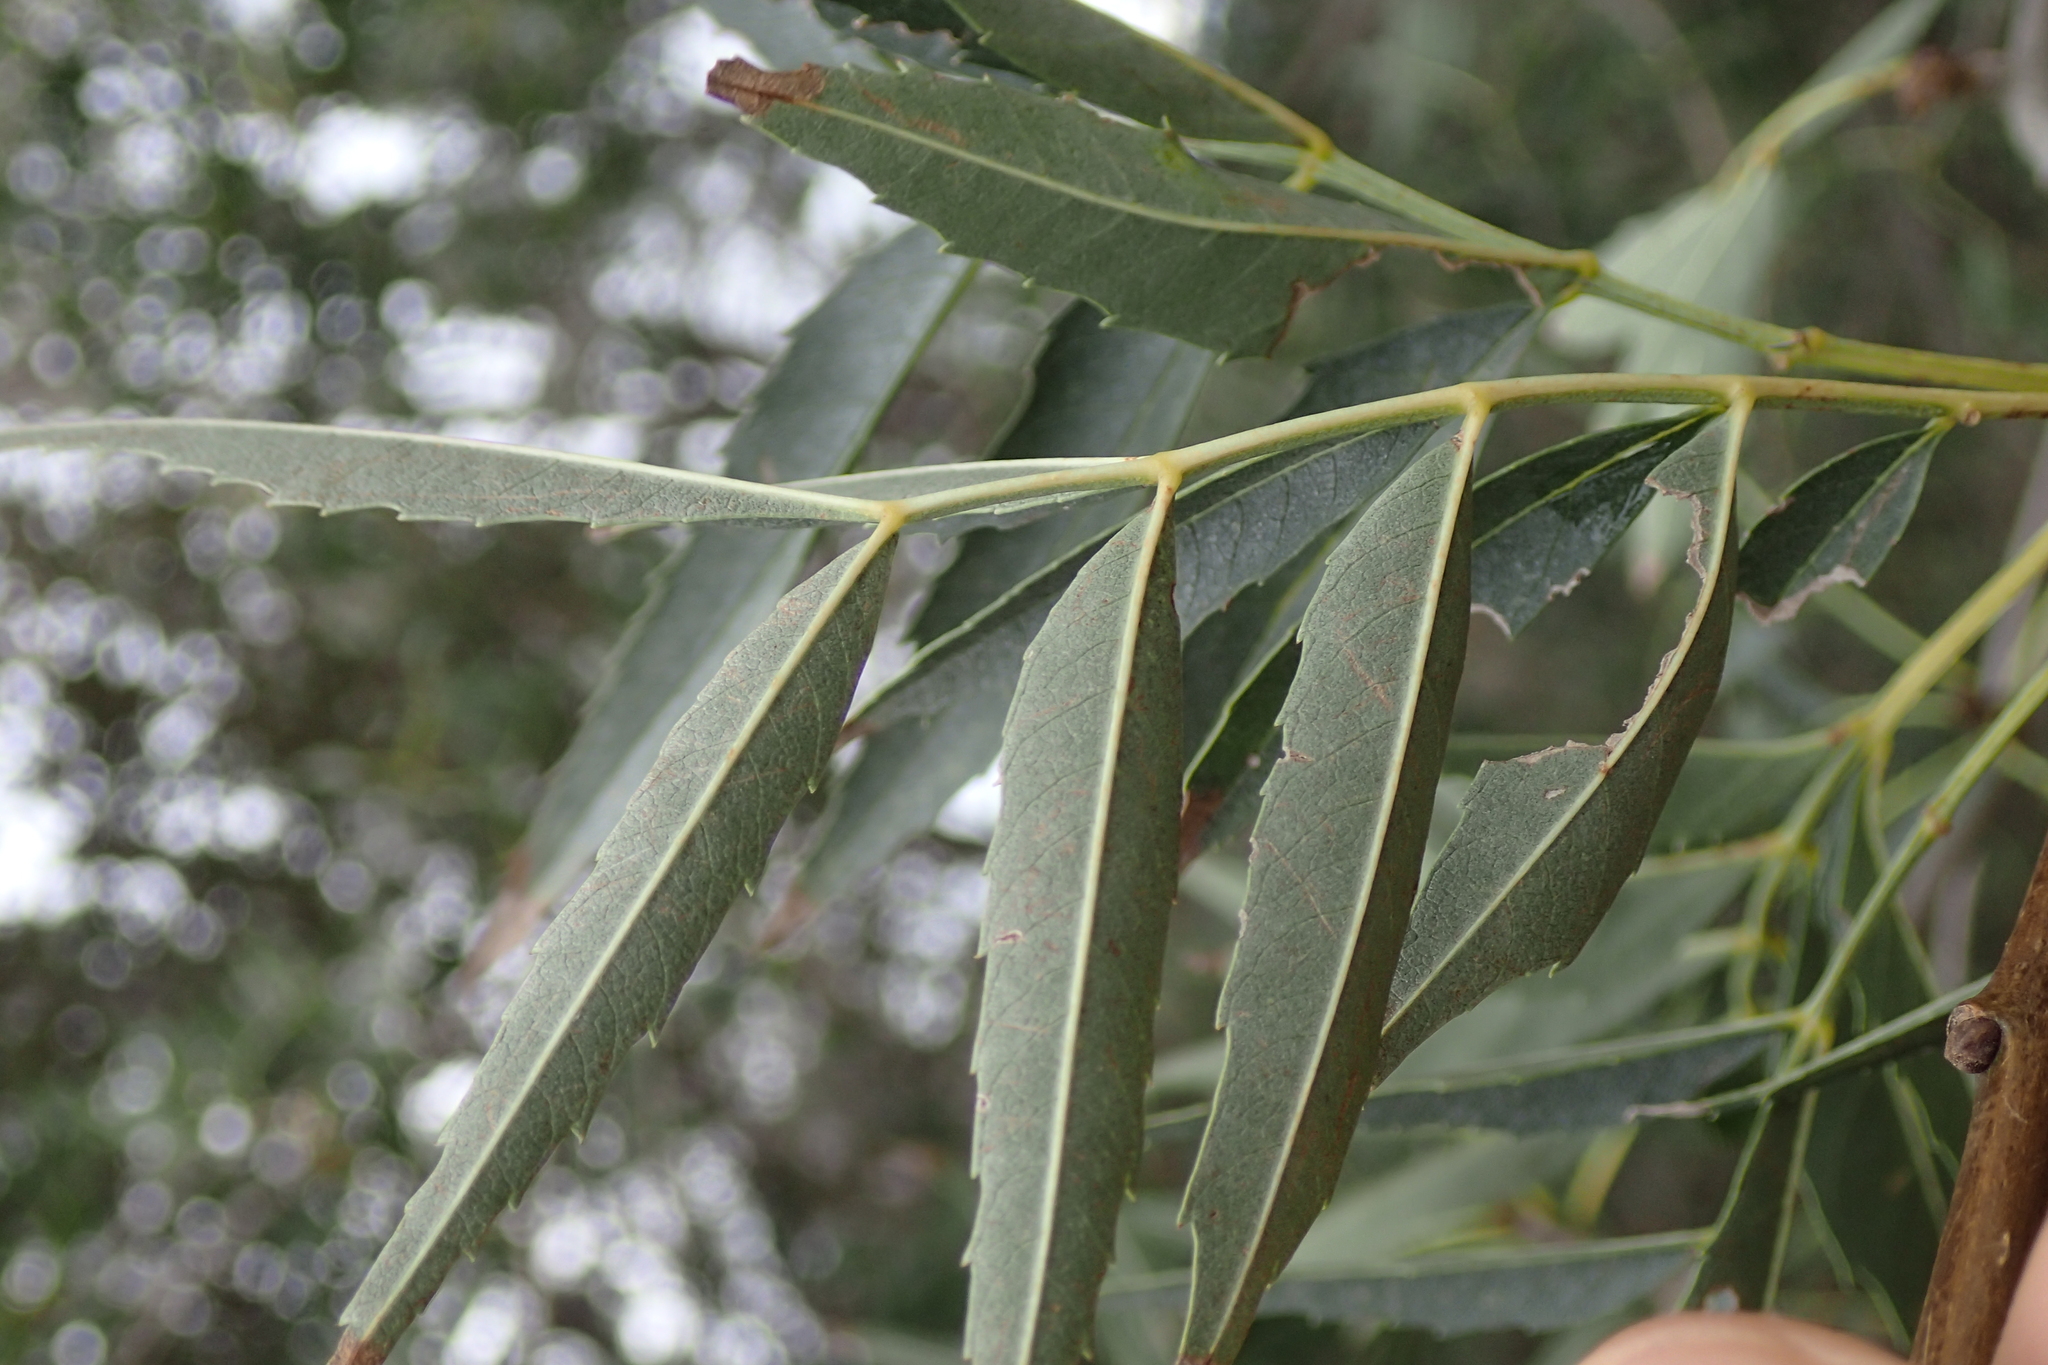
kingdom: Plantae
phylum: Tracheophyta
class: Magnoliopsida
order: Lamiales
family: Oleaceae
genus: Fraxinus
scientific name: Fraxinus angustifolia
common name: Narrow-leafed ash
